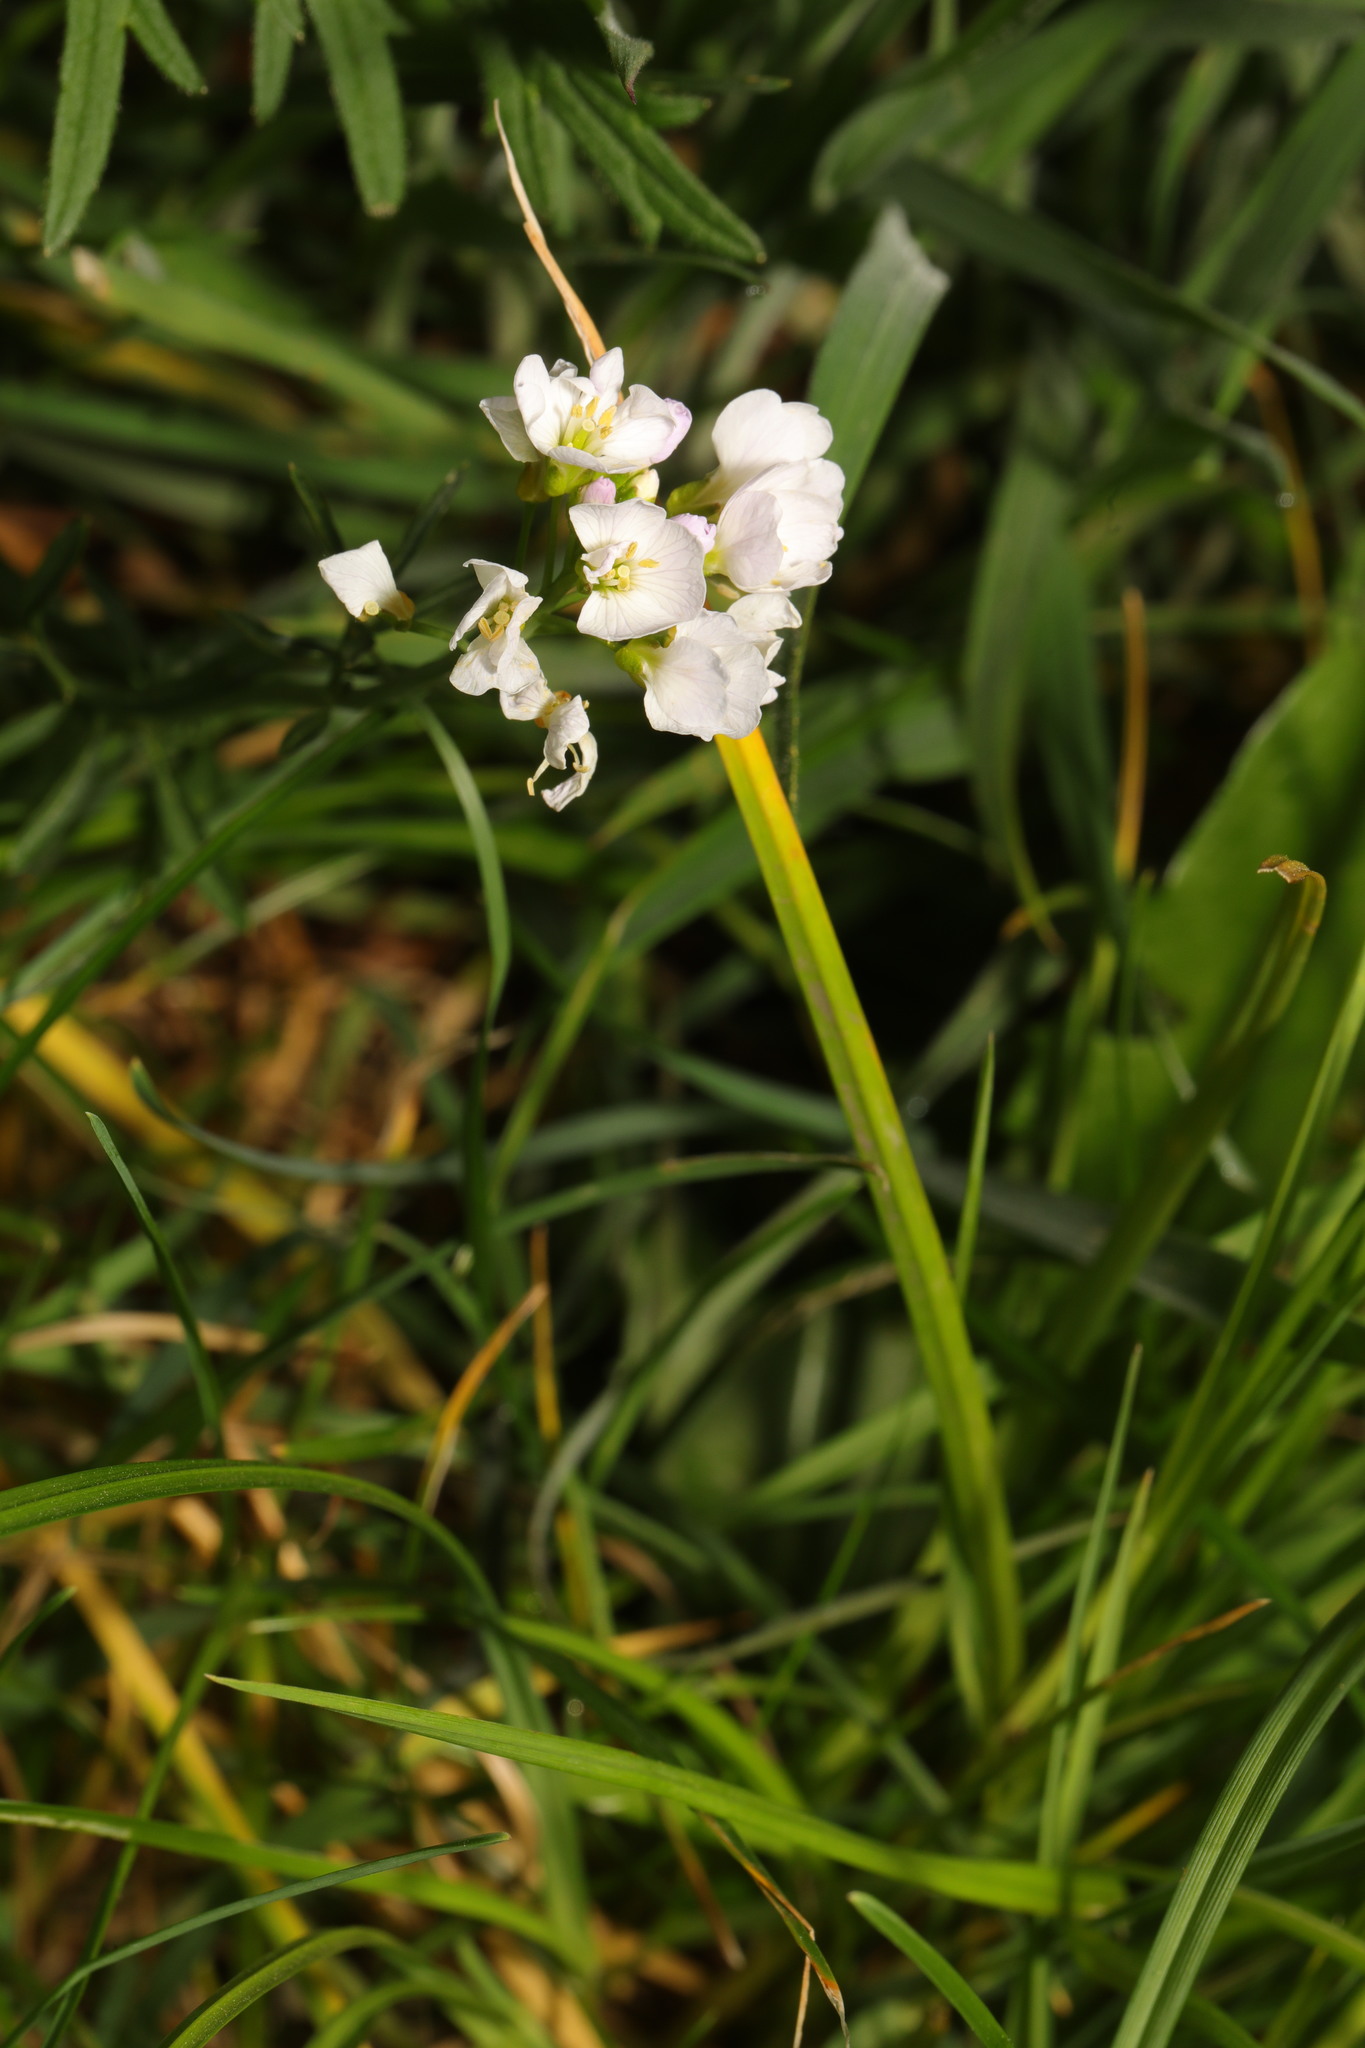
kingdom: Plantae
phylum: Tracheophyta
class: Magnoliopsida
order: Brassicales
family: Brassicaceae
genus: Cardamine
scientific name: Cardamine pratensis
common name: Cuckoo flower
